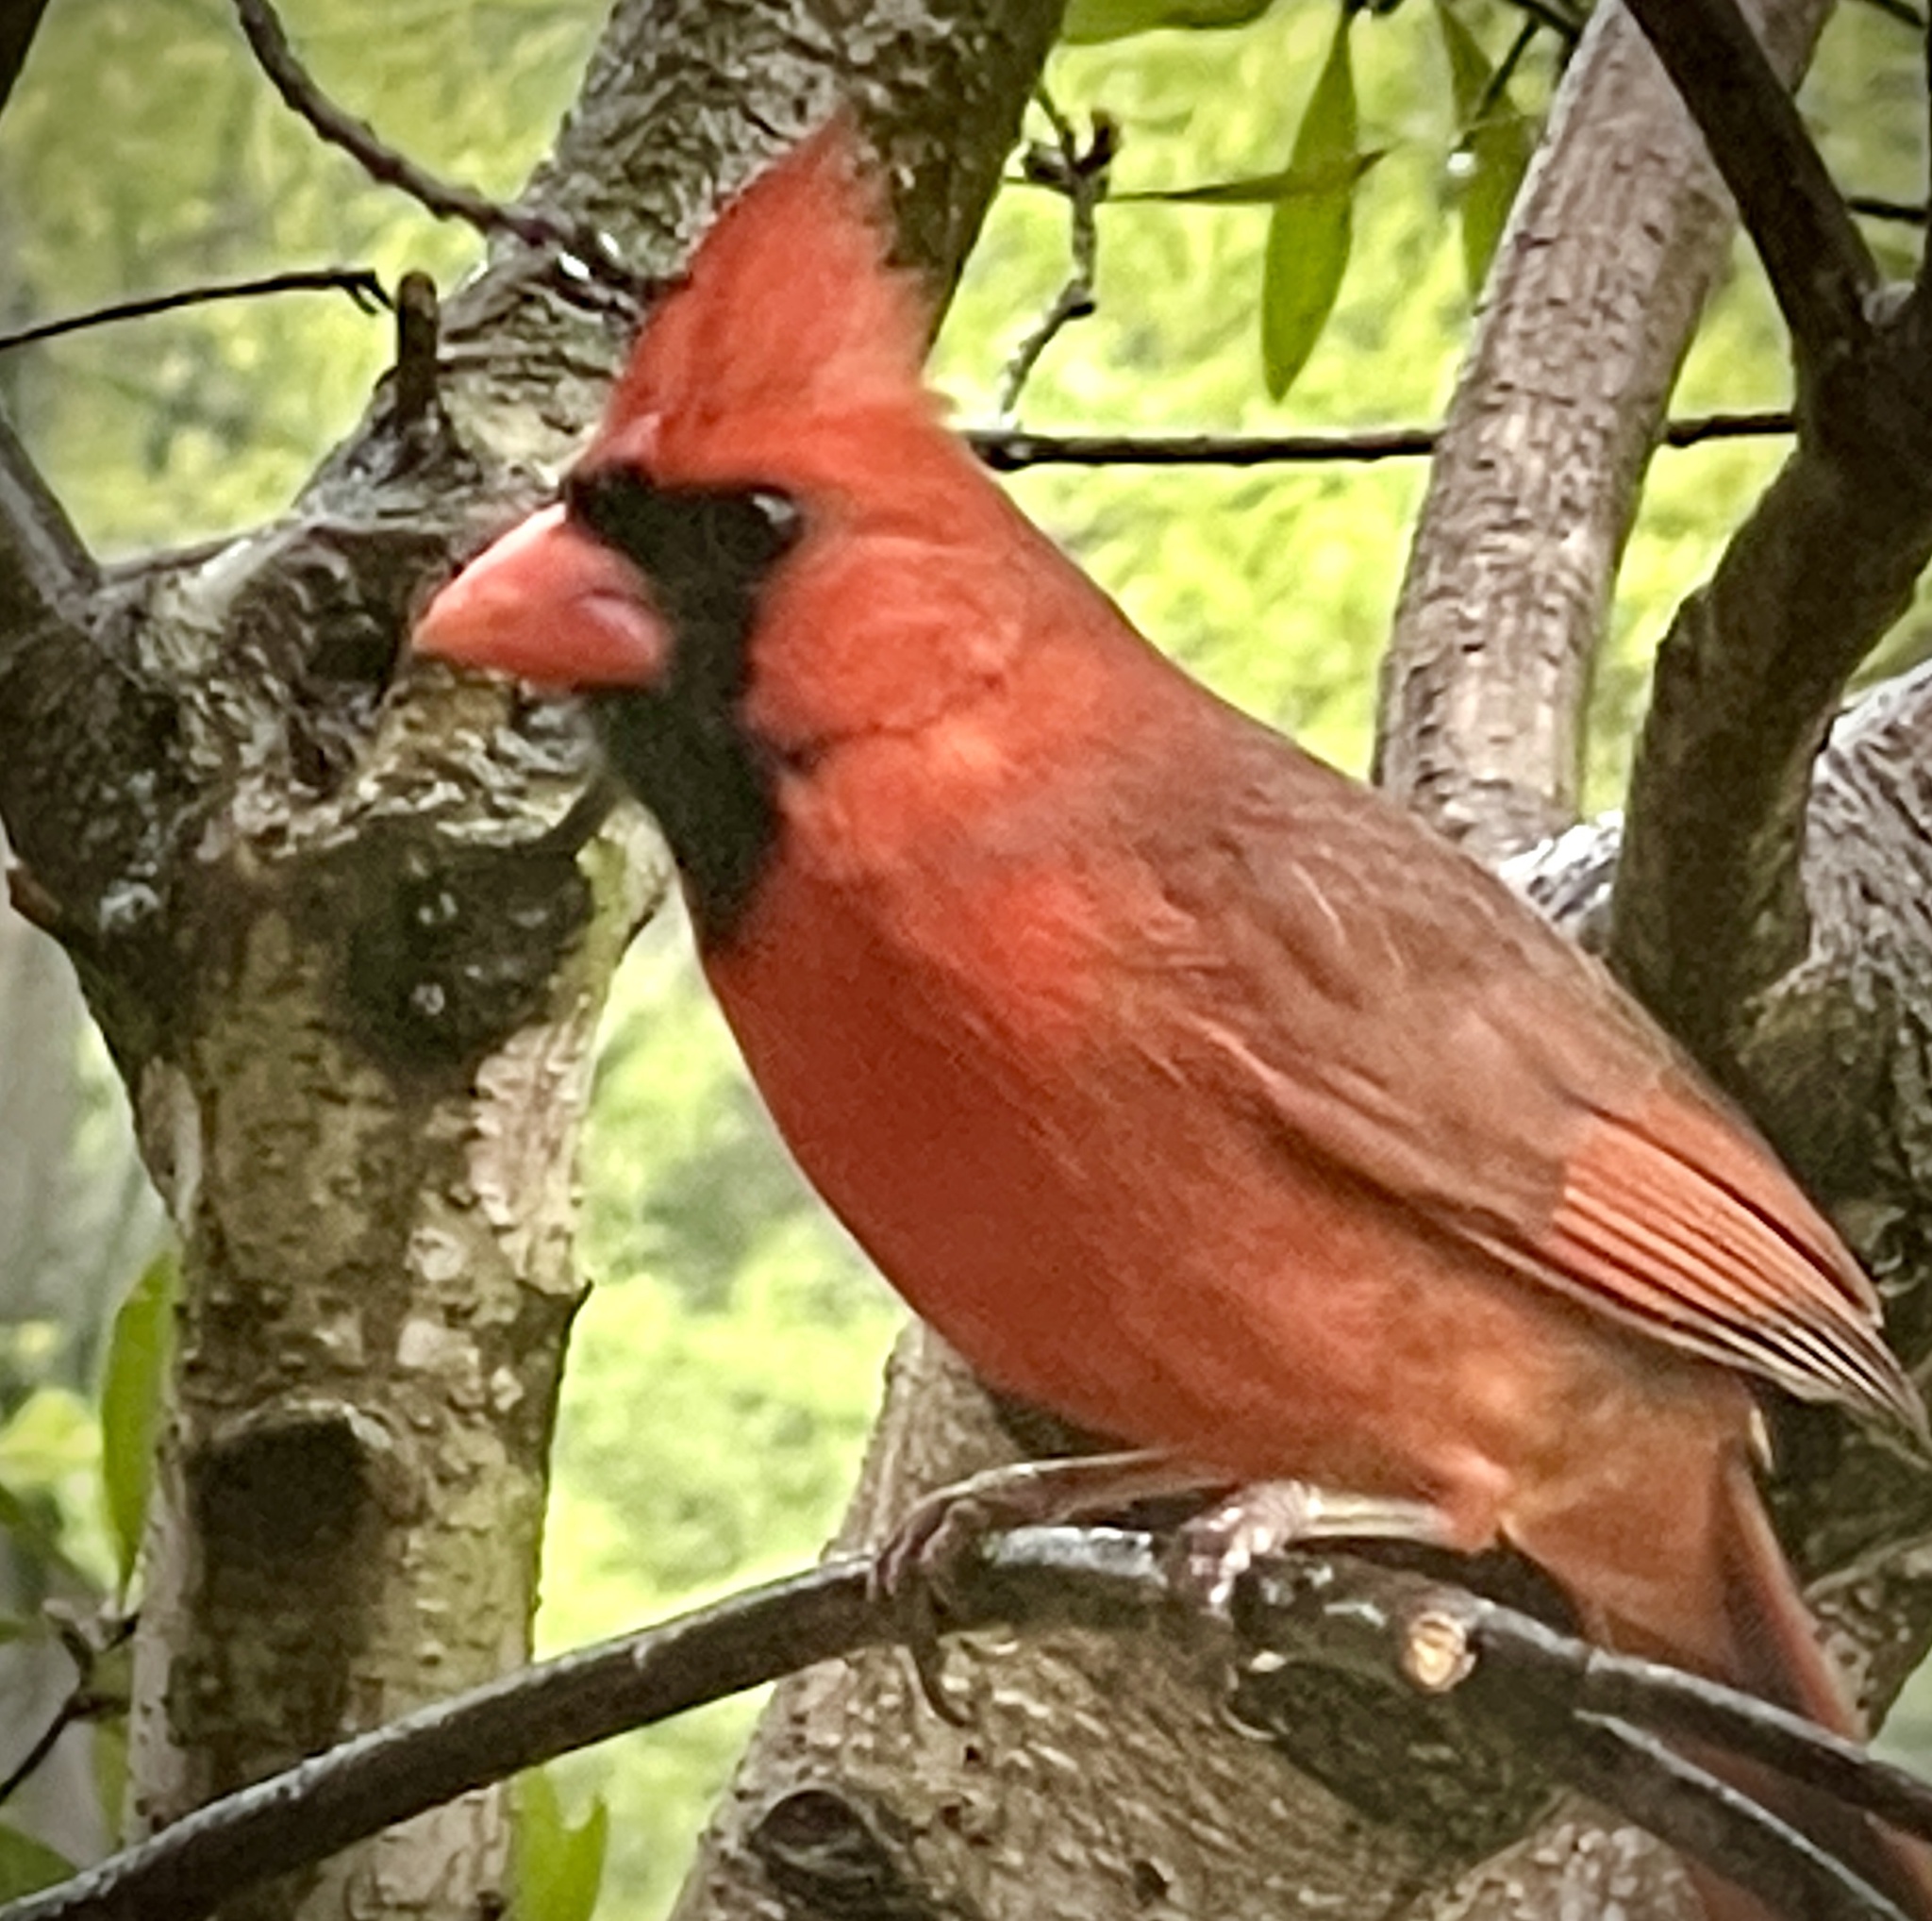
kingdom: Animalia
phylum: Chordata
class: Aves
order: Passeriformes
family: Cardinalidae
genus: Cardinalis
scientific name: Cardinalis cardinalis
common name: Northern cardinal
